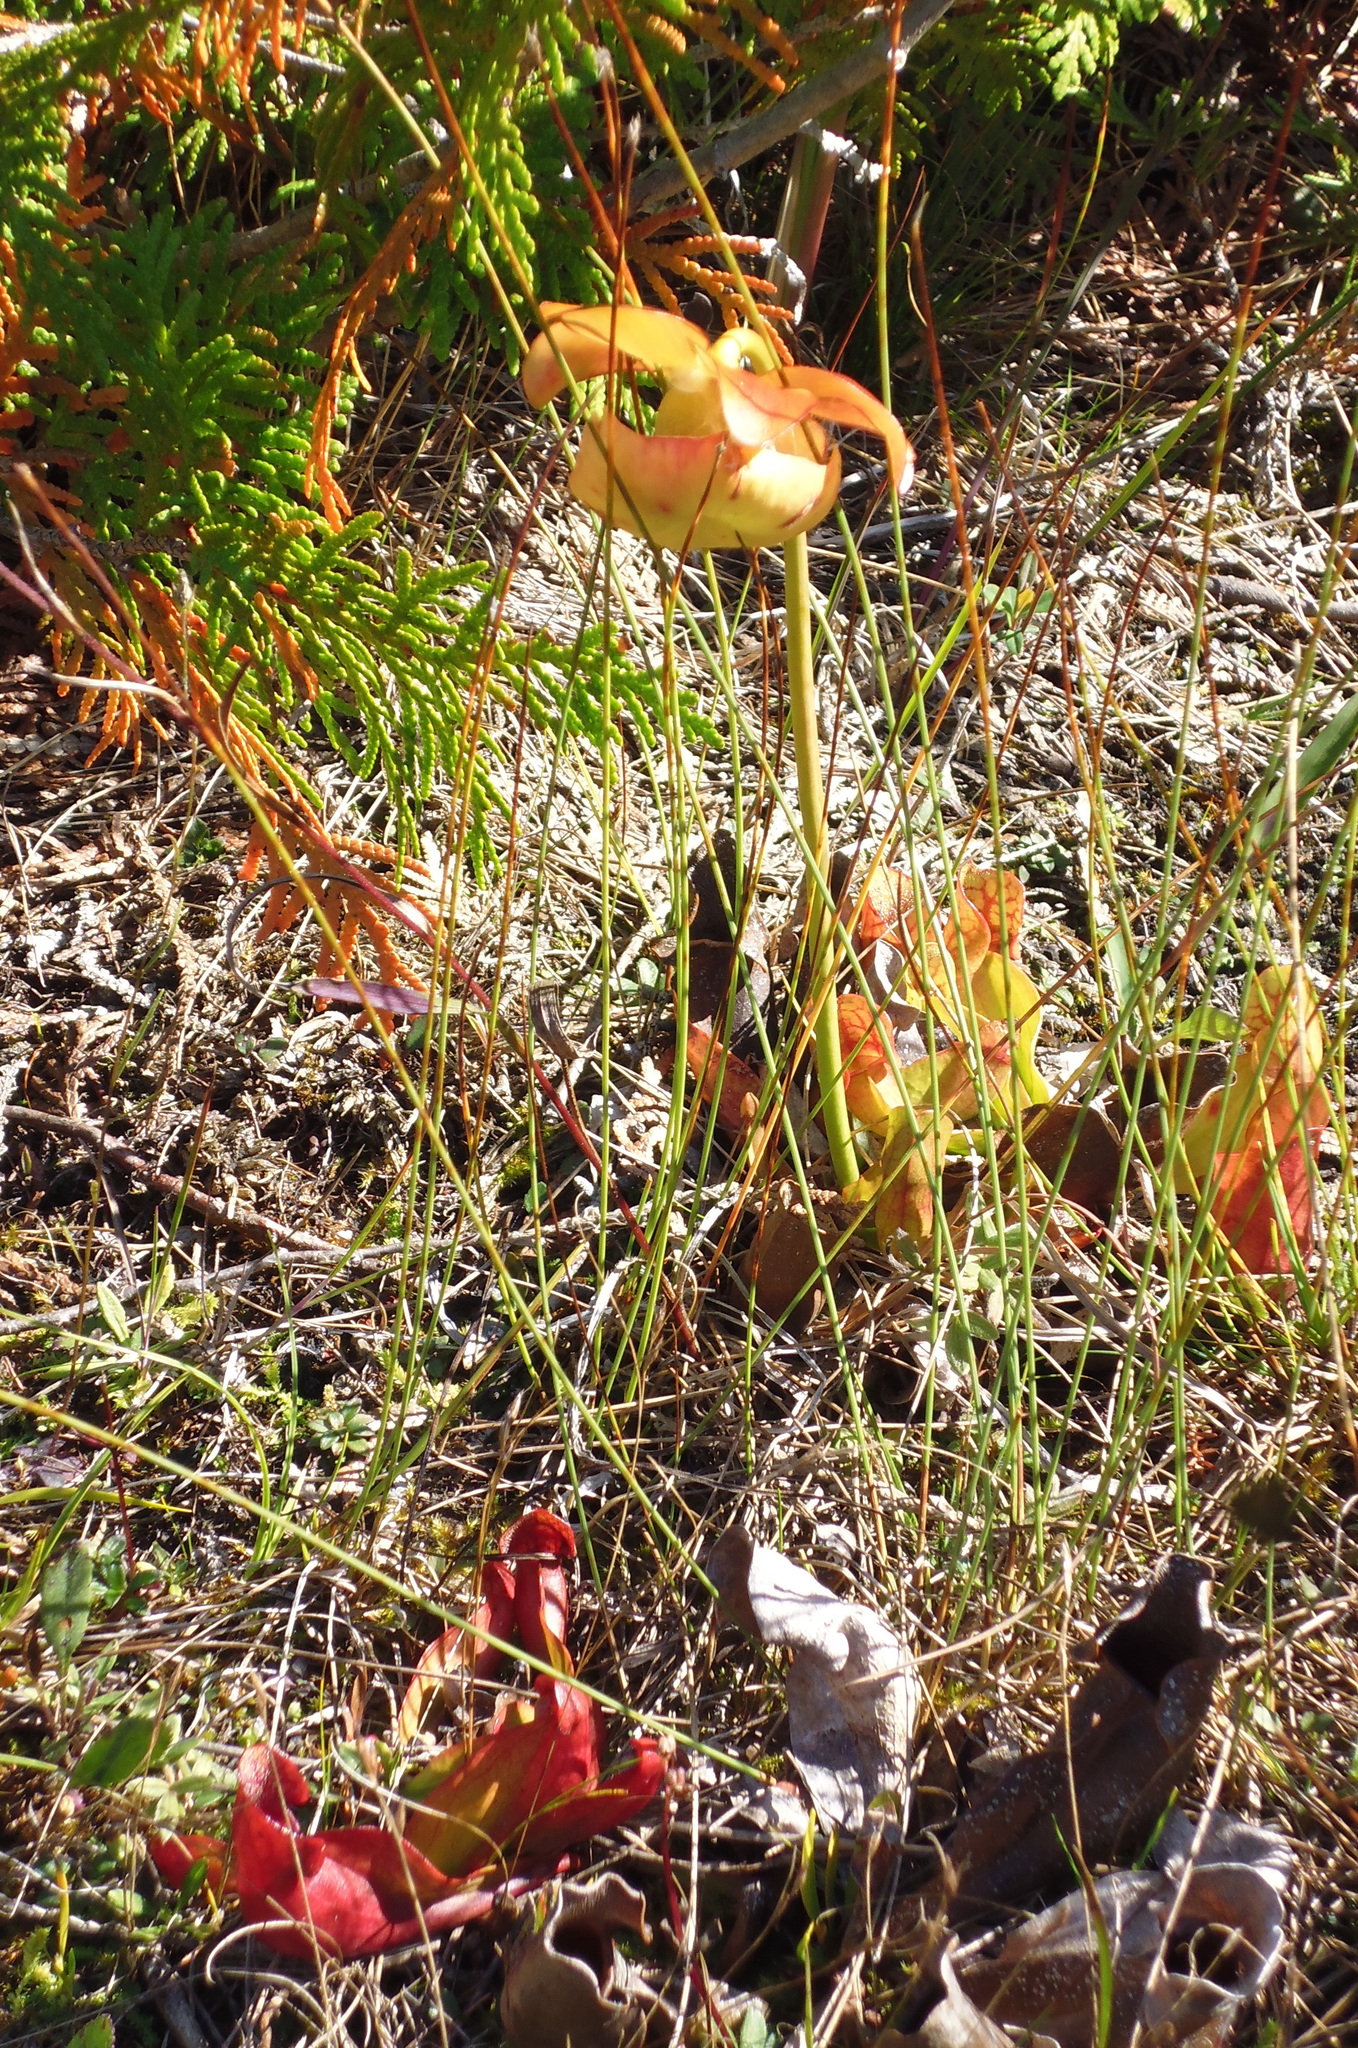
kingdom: Plantae
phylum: Tracheophyta
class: Magnoliopsida
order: Ericales
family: Sarraceniaceae
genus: Sarracenia
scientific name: Sarracenia purpurea
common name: Pitcherplant
